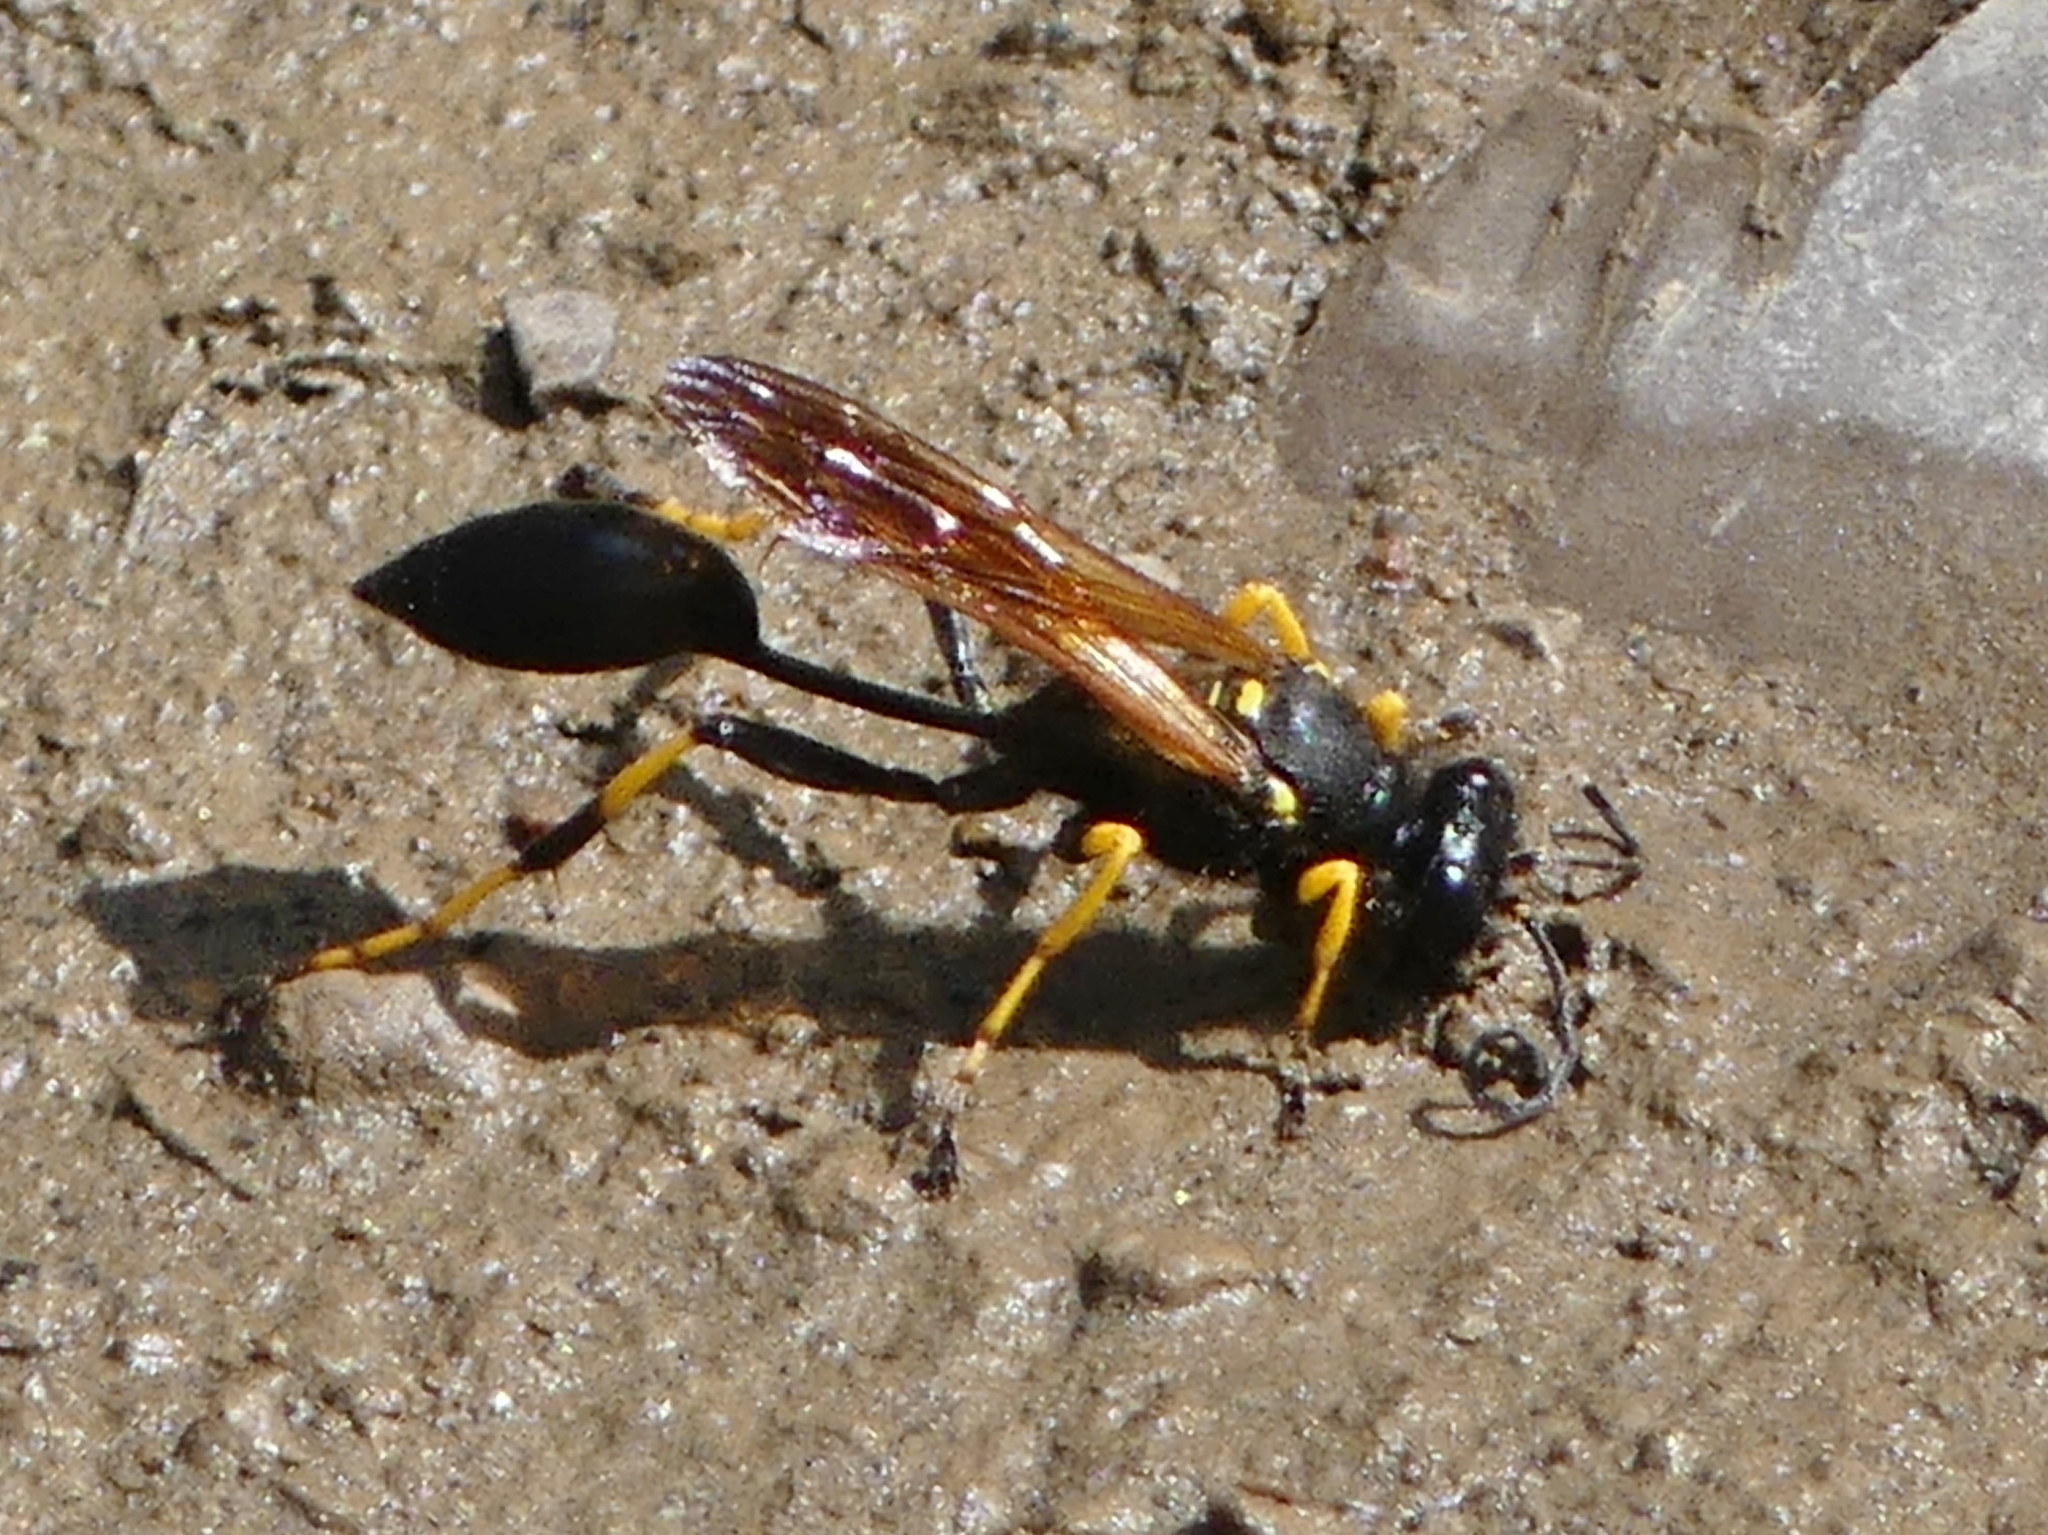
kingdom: Animalia
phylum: Arthropoda
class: Insecta
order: Hymenoptera
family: Sphecidae
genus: Sceliphron
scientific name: Sceliphron caementarium
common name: Mud dauber
